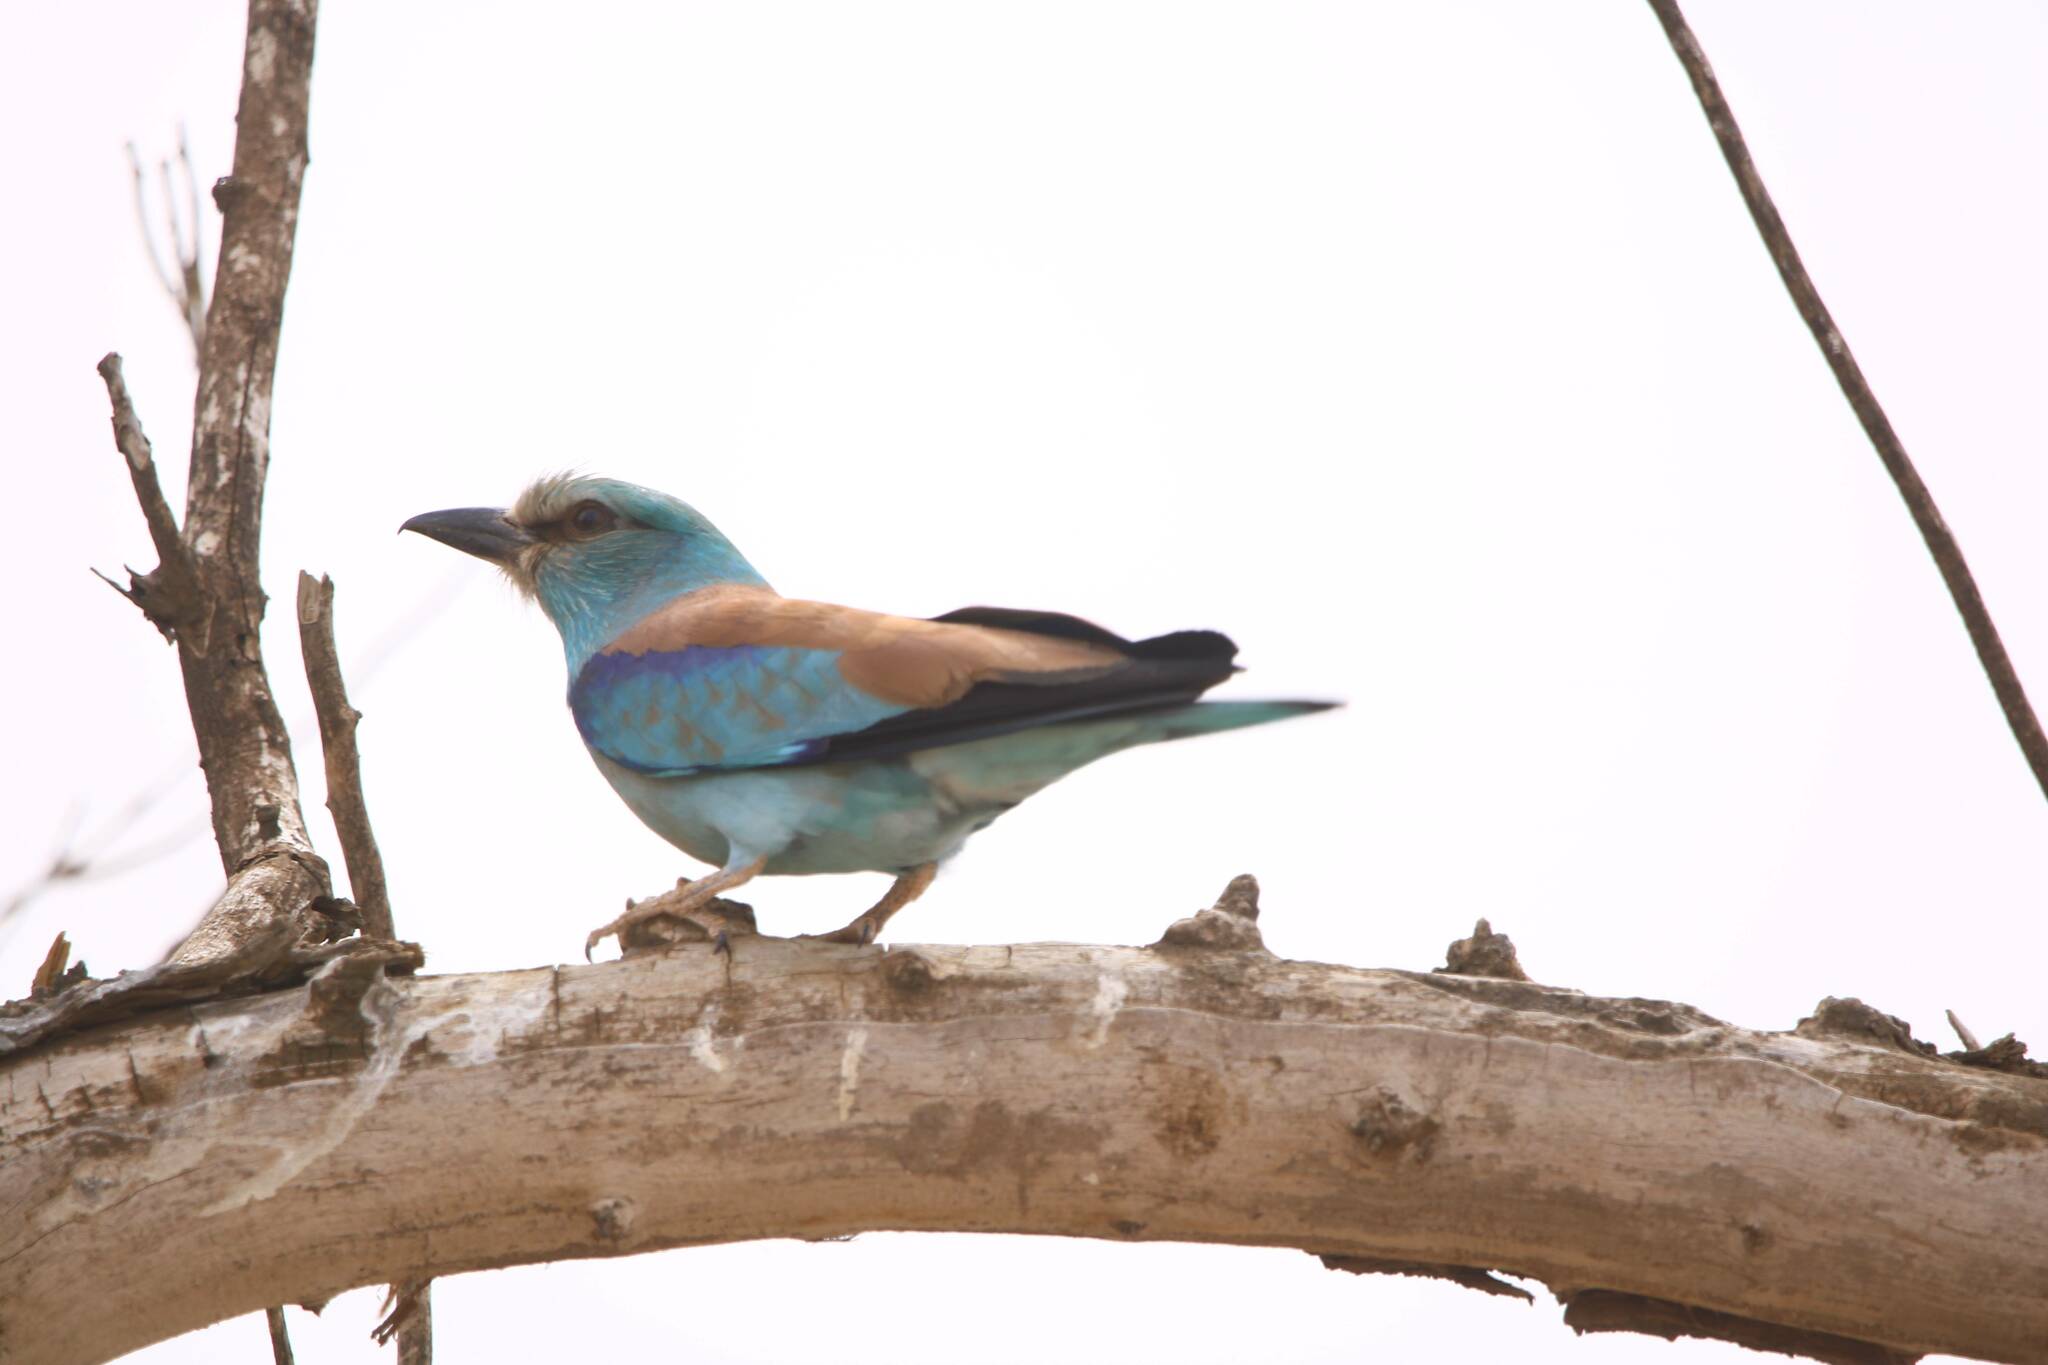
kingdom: Animalia
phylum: Chordata
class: Aves
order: Coraciiformes
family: Coraciidae
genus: Coracias
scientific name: Coracias garrulus
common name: European roller
